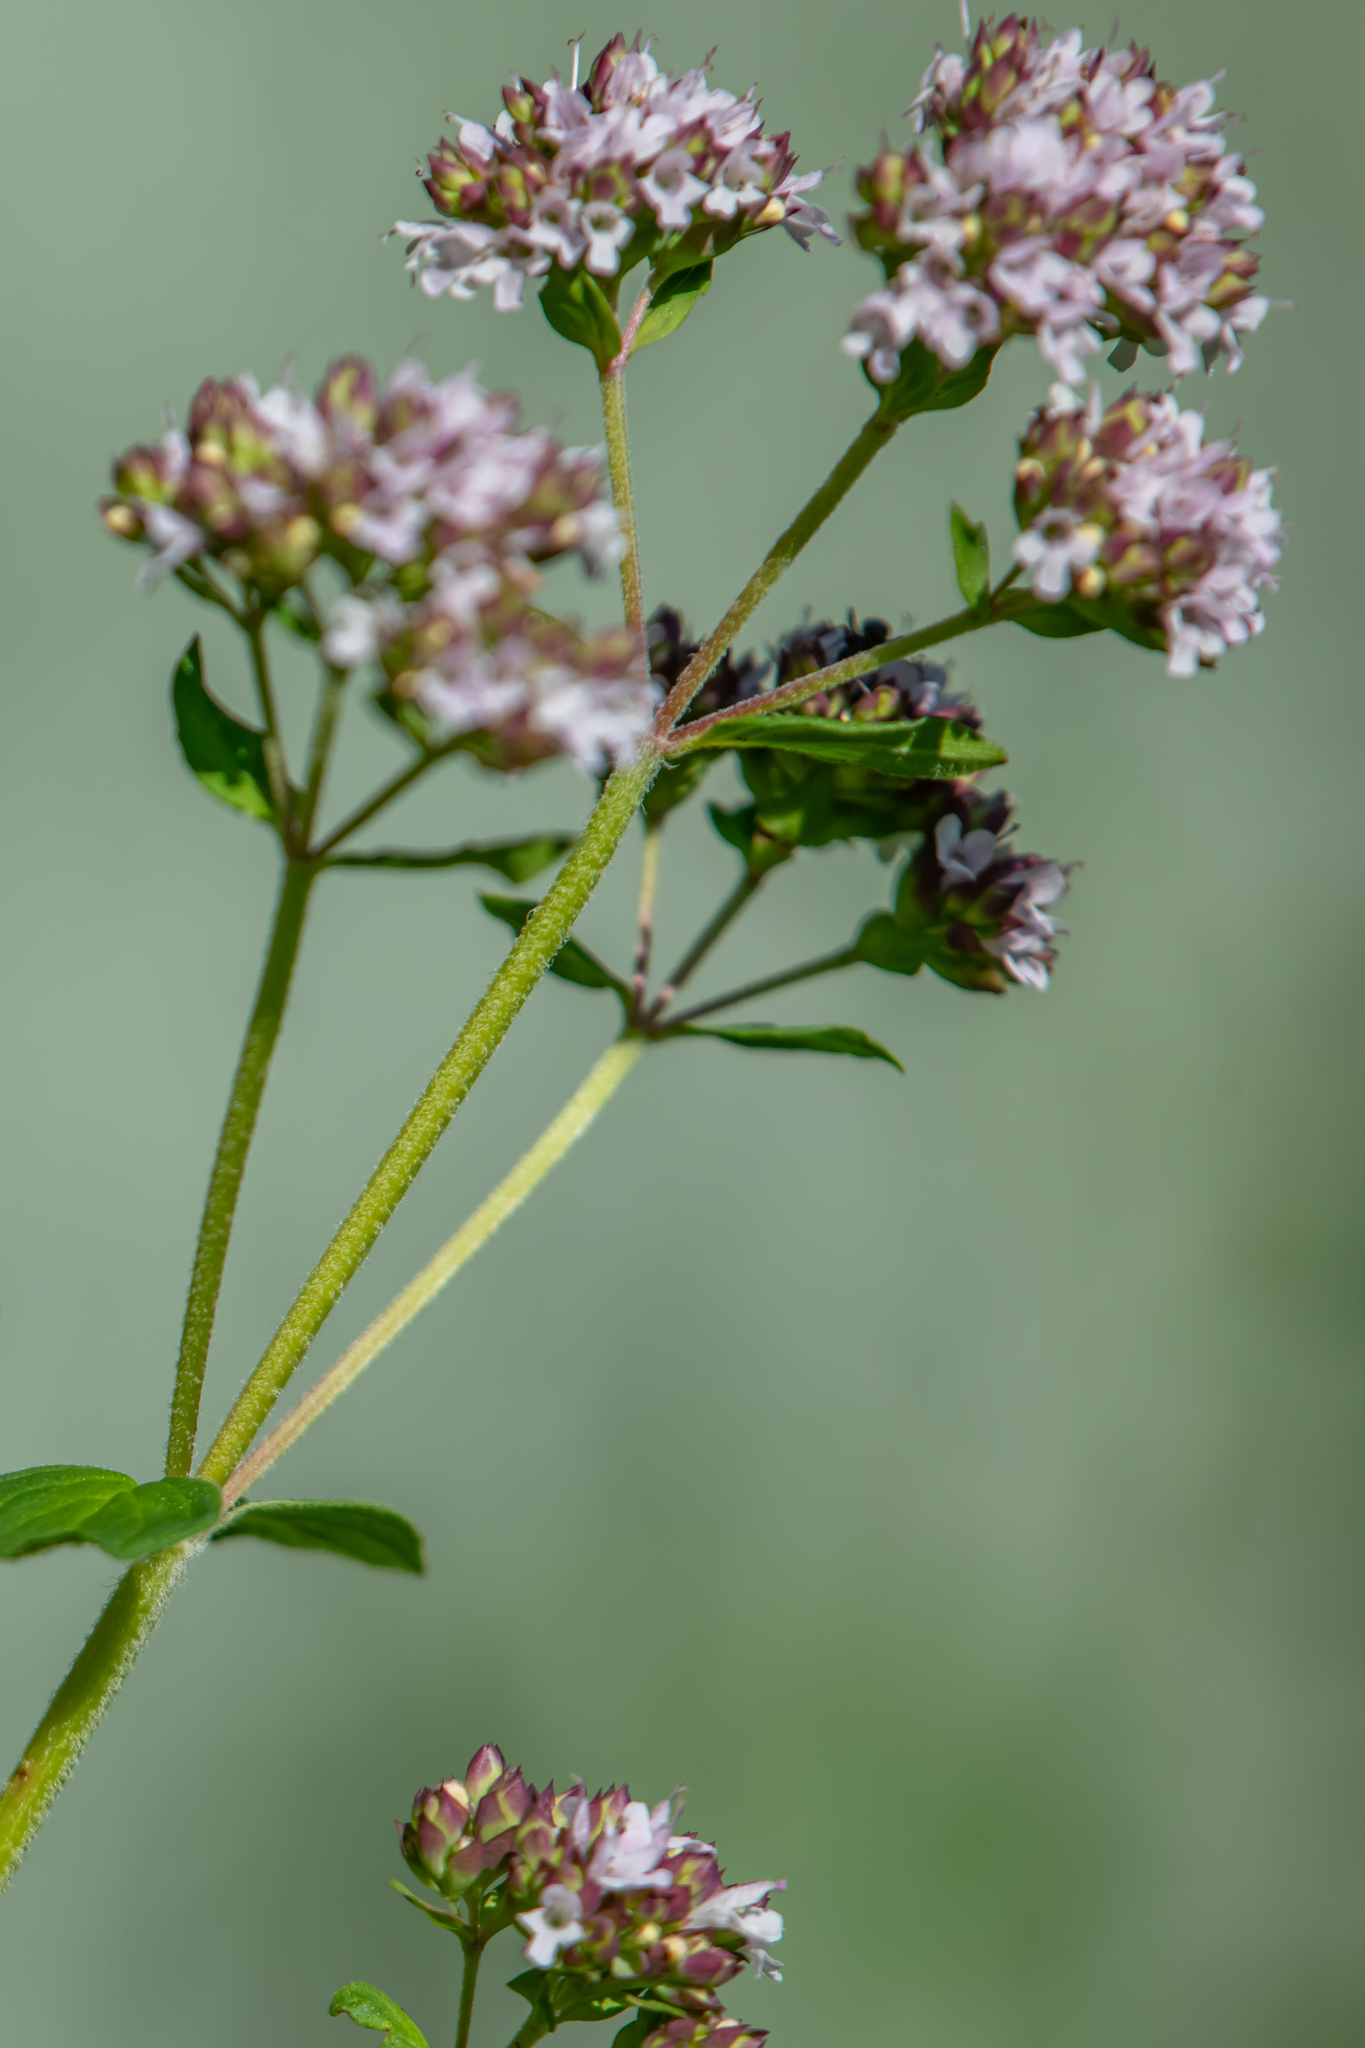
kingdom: Plantae
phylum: Tracheophyta
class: Magnoliopsida
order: Lamiales
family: Lamiaceae
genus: Origanum
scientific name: Origanum vulgare
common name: Wild marjoram
